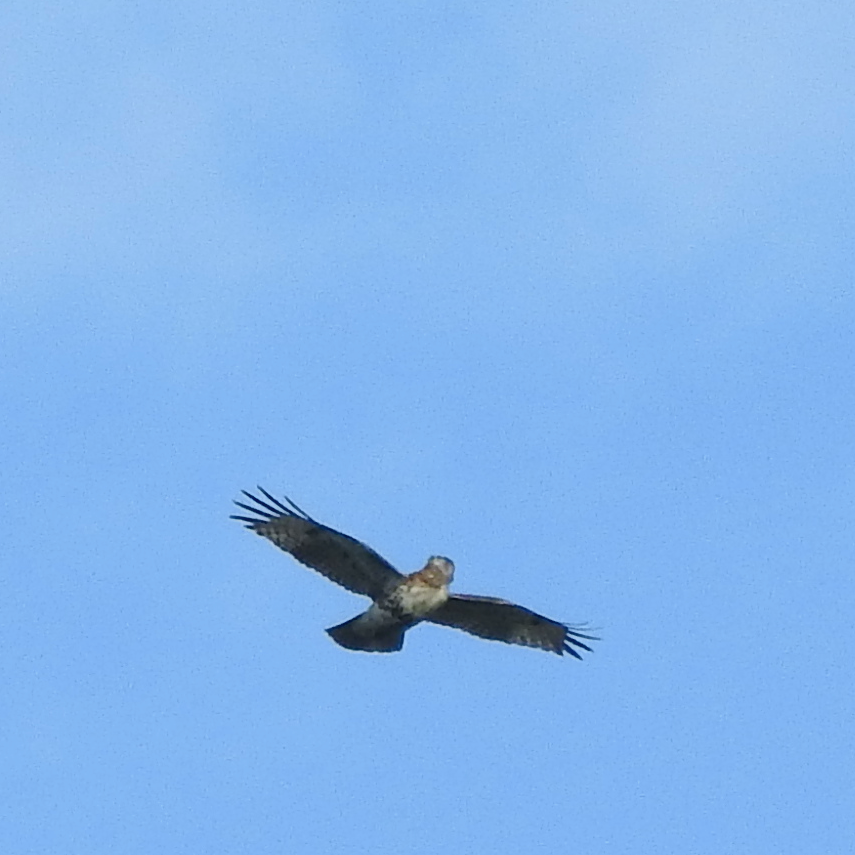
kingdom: Animalia
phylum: Chordata
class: Aves
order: Accipitriformes
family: Accipitridae
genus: Buteo
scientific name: Buteo jamaicensis
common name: Red-tailed hawk
